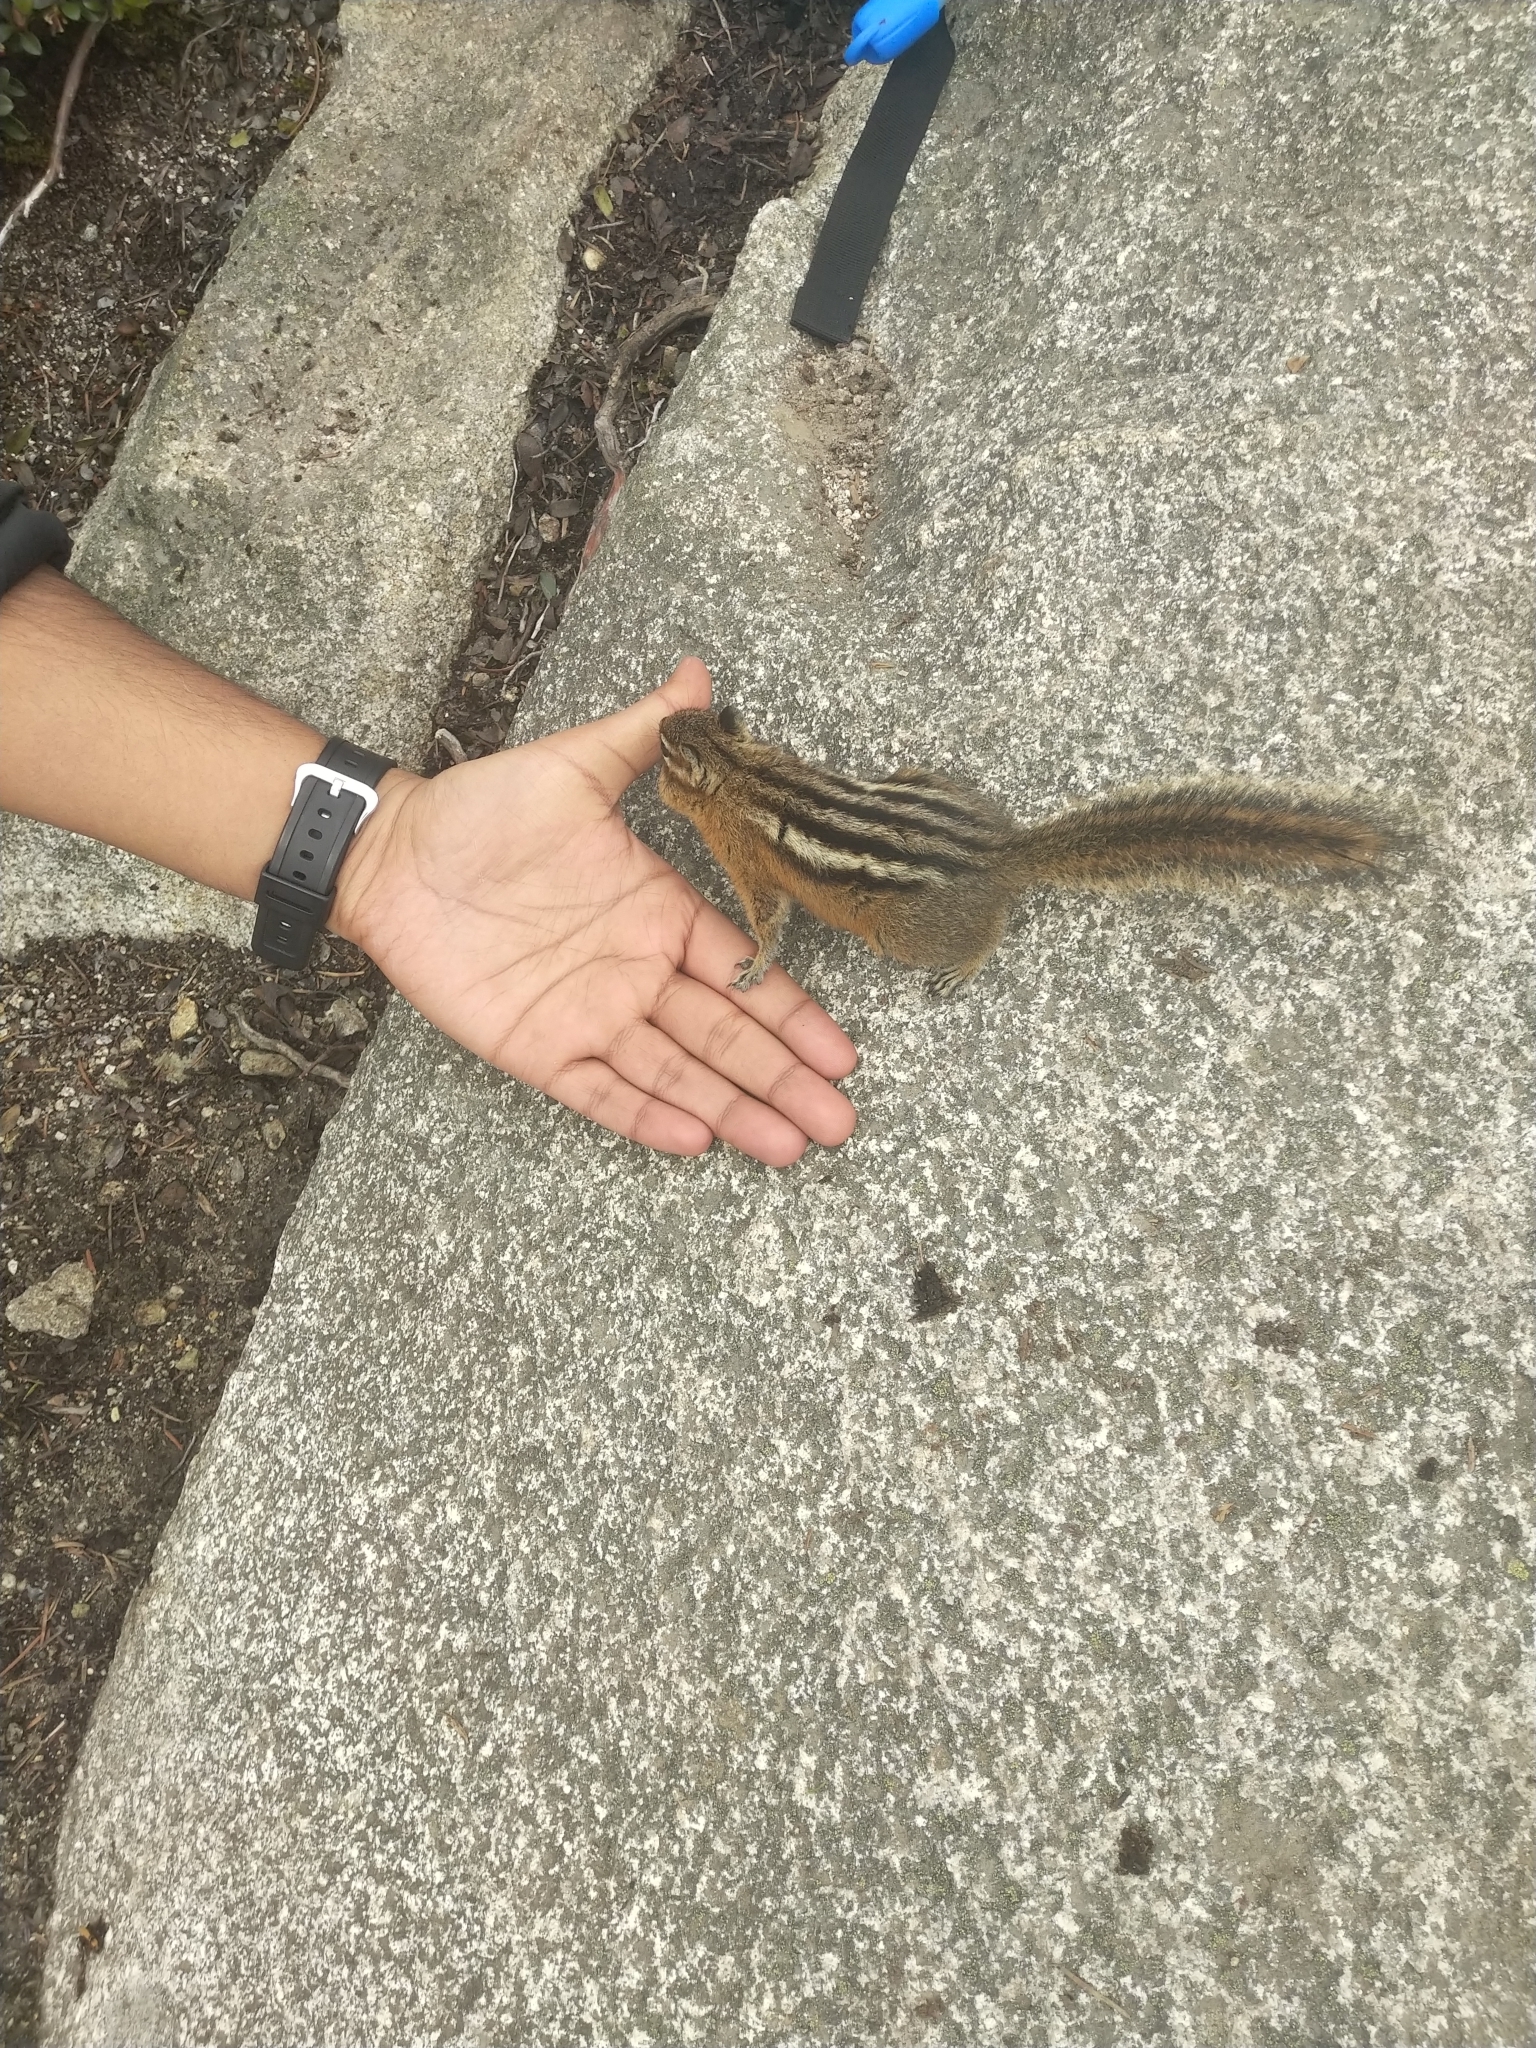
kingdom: Animalia
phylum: Chordata
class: Mammalia
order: Rodentia
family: Sciuridae
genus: Tamias
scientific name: Tamias amoenus
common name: Yellow-pine chipmunk
